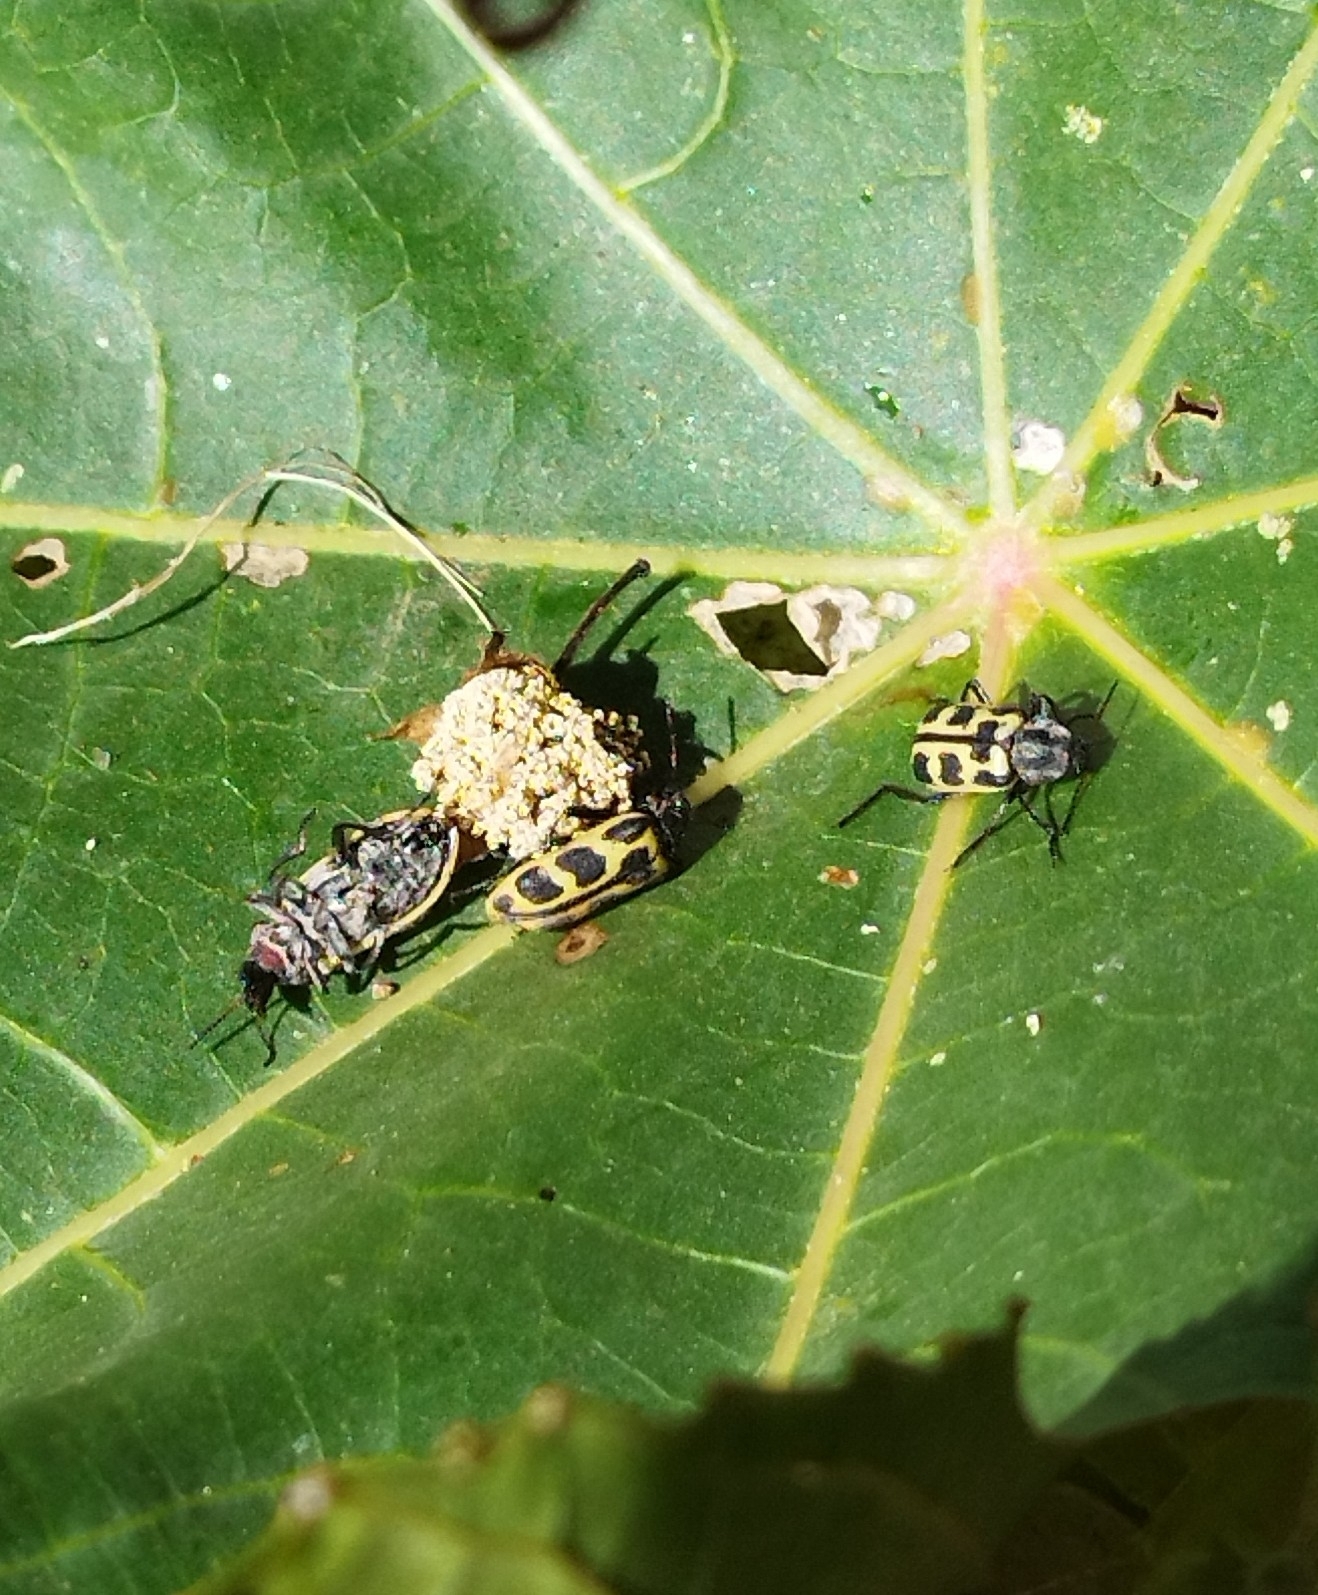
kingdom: Animalia
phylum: Arthropoda
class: Insecta
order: Coleoptera
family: Melyridae
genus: Astylus
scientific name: Astylus atromaculatus
